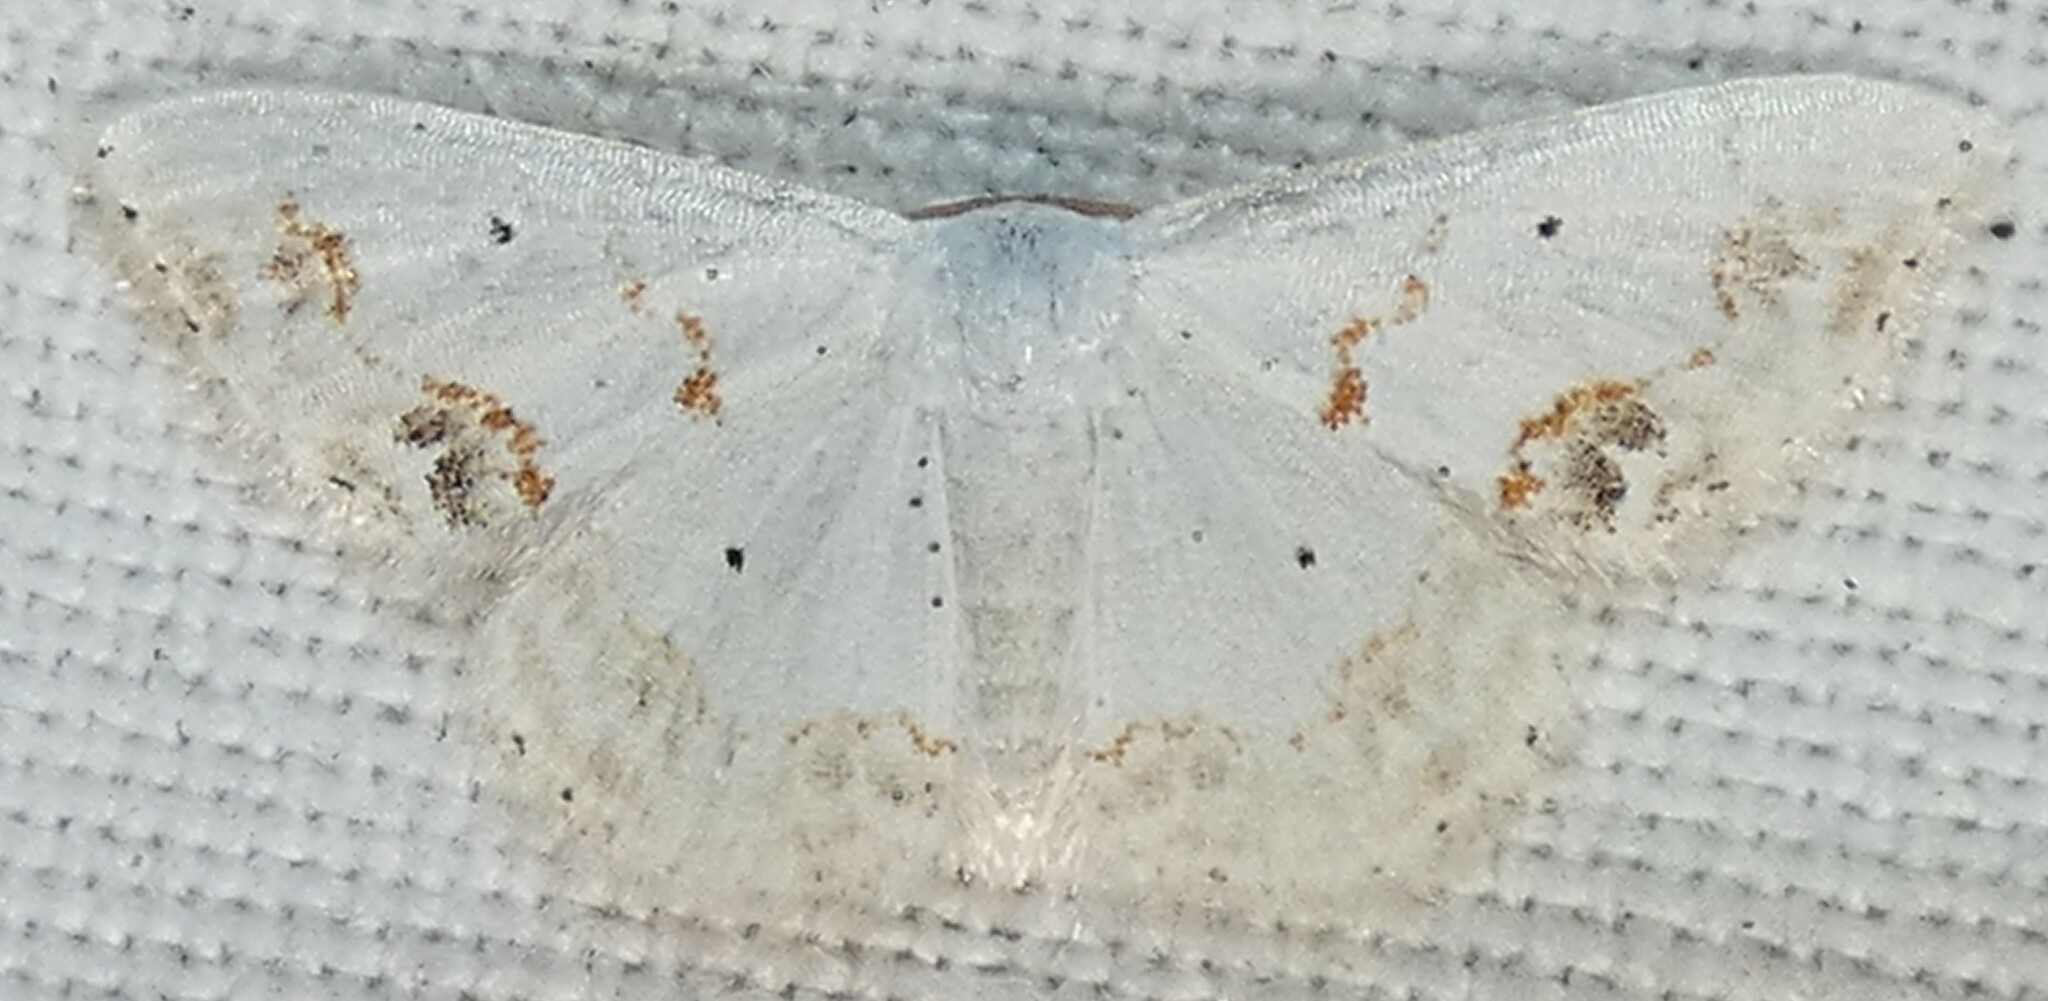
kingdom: Animalia
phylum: Arthropoda
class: Insecta
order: Lepidoptera
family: Geometridae
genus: Scopula
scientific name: Scopula lautaria
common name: Small frosted wave moth
